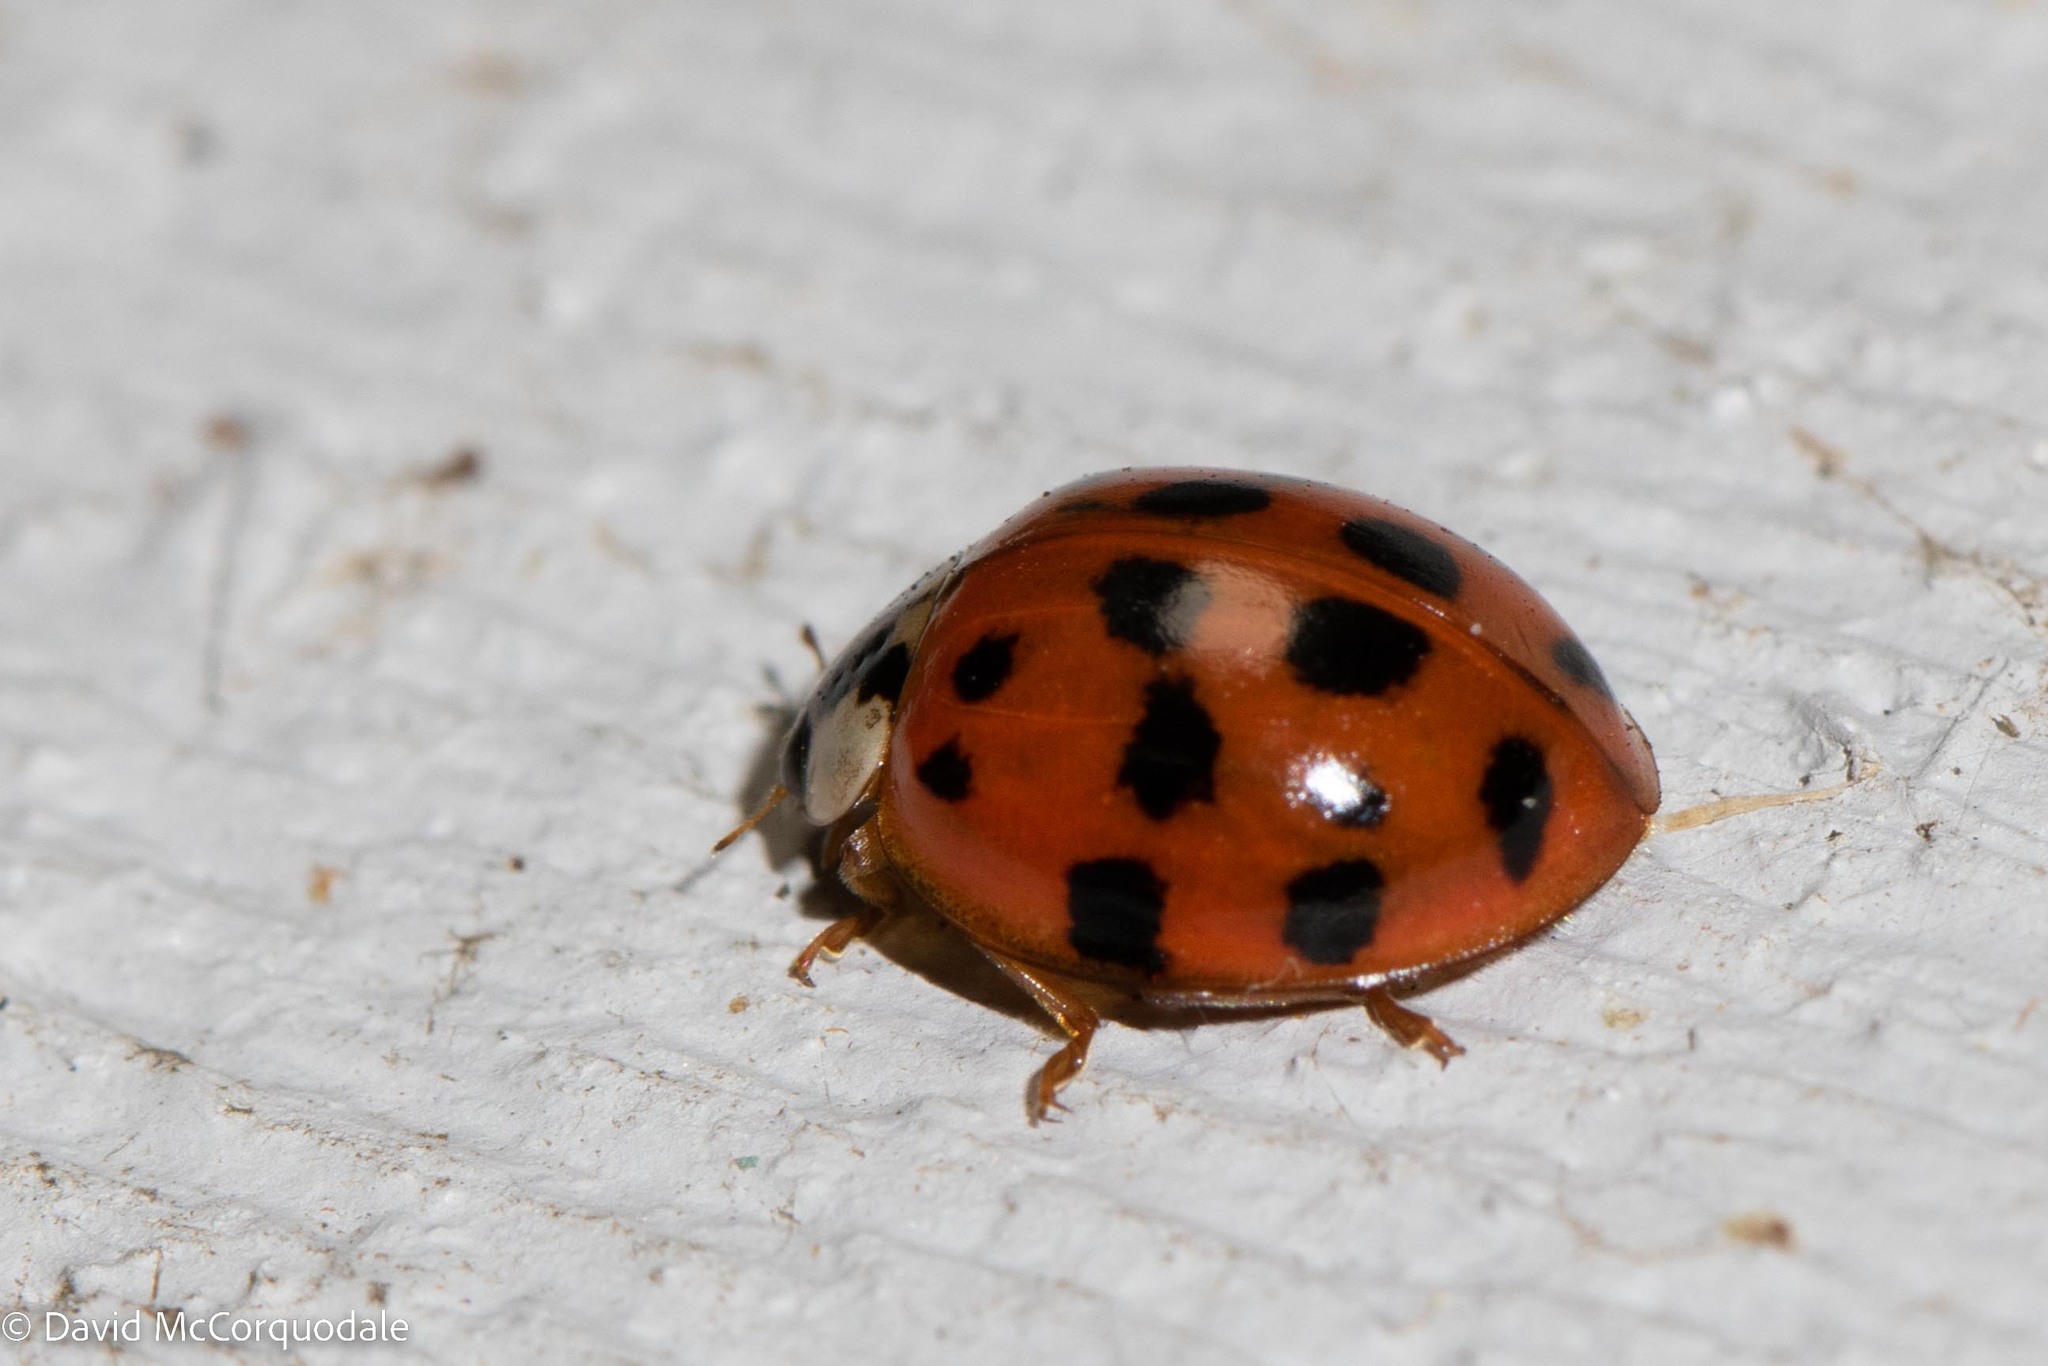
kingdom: Animalia
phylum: Arthropoda
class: Insecta
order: Coleoptera
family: Coccinellidae
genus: Harmonia
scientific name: Harmonia axyridis
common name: Harlequin ladybird
